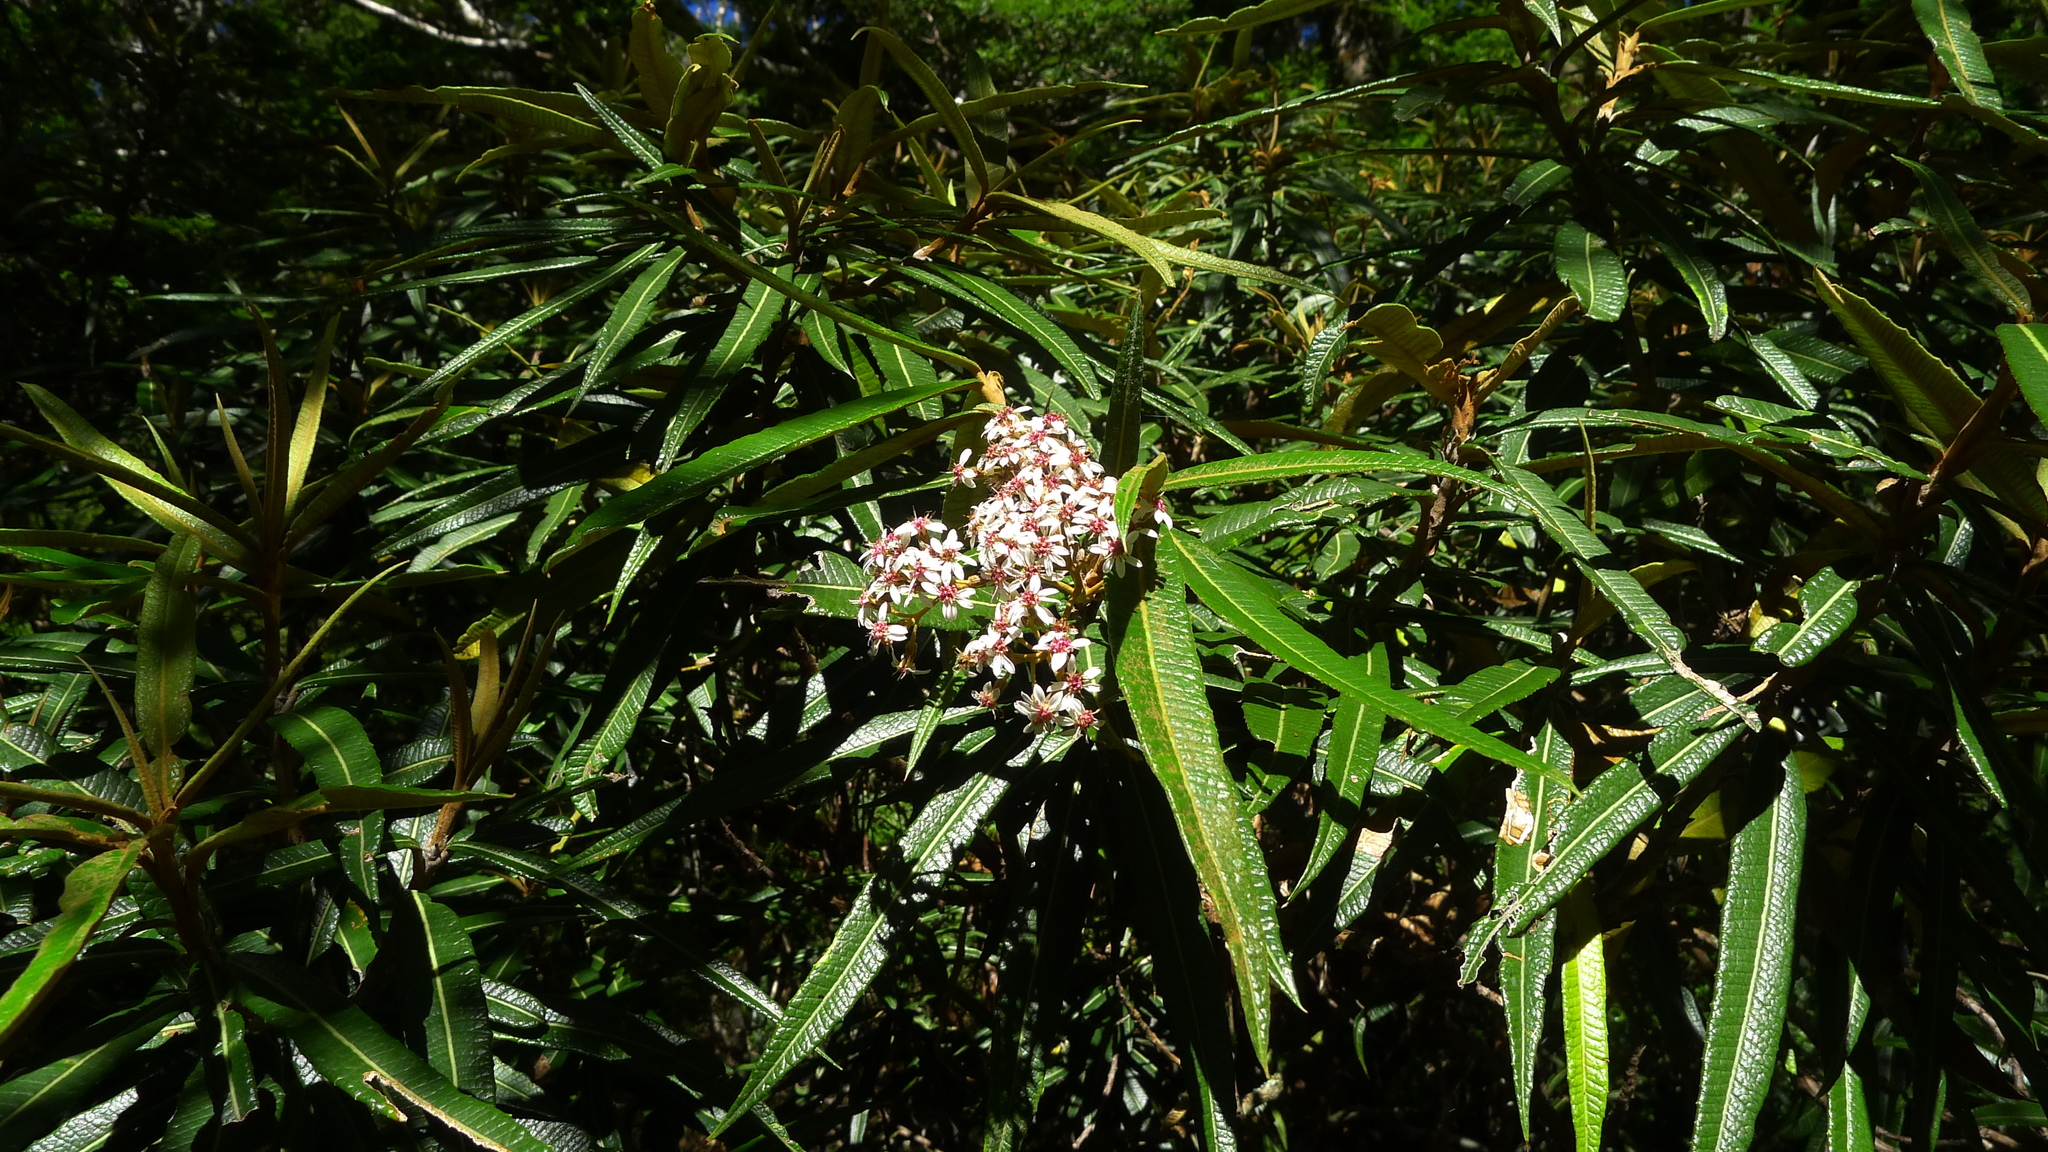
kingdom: Plantae
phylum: Tracheophyta
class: Magnoliopsida
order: Asterales
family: Asteraceae
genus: Olearia
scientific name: Olearia lacunosa
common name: Lancewood tree daisy
